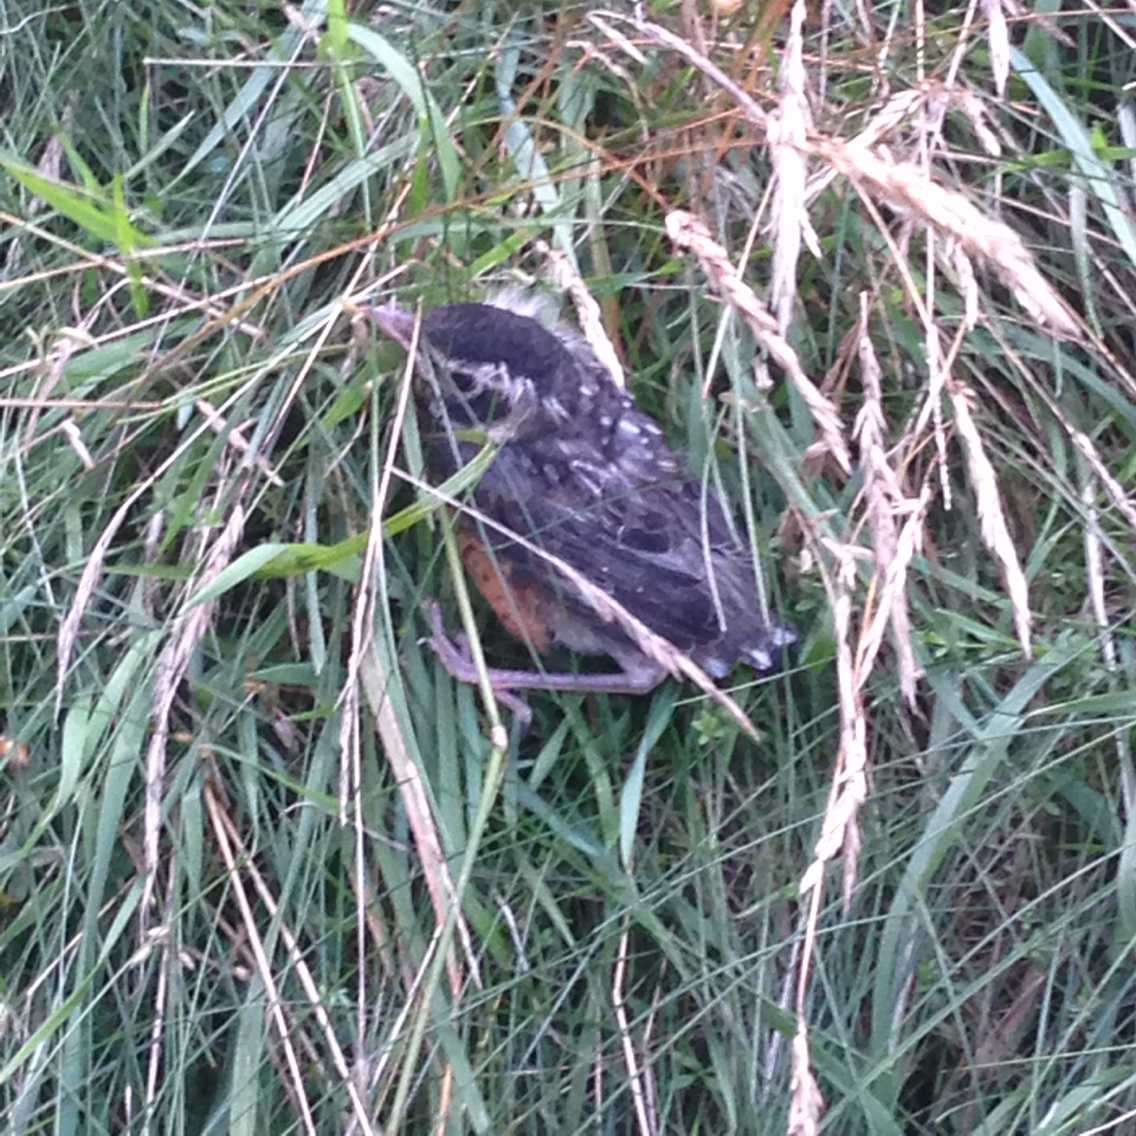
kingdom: Animalia
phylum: Chordata
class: Aves
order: Passeriformes
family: Turdidae
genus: Turdus
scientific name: Turdus migratorius
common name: American robin
